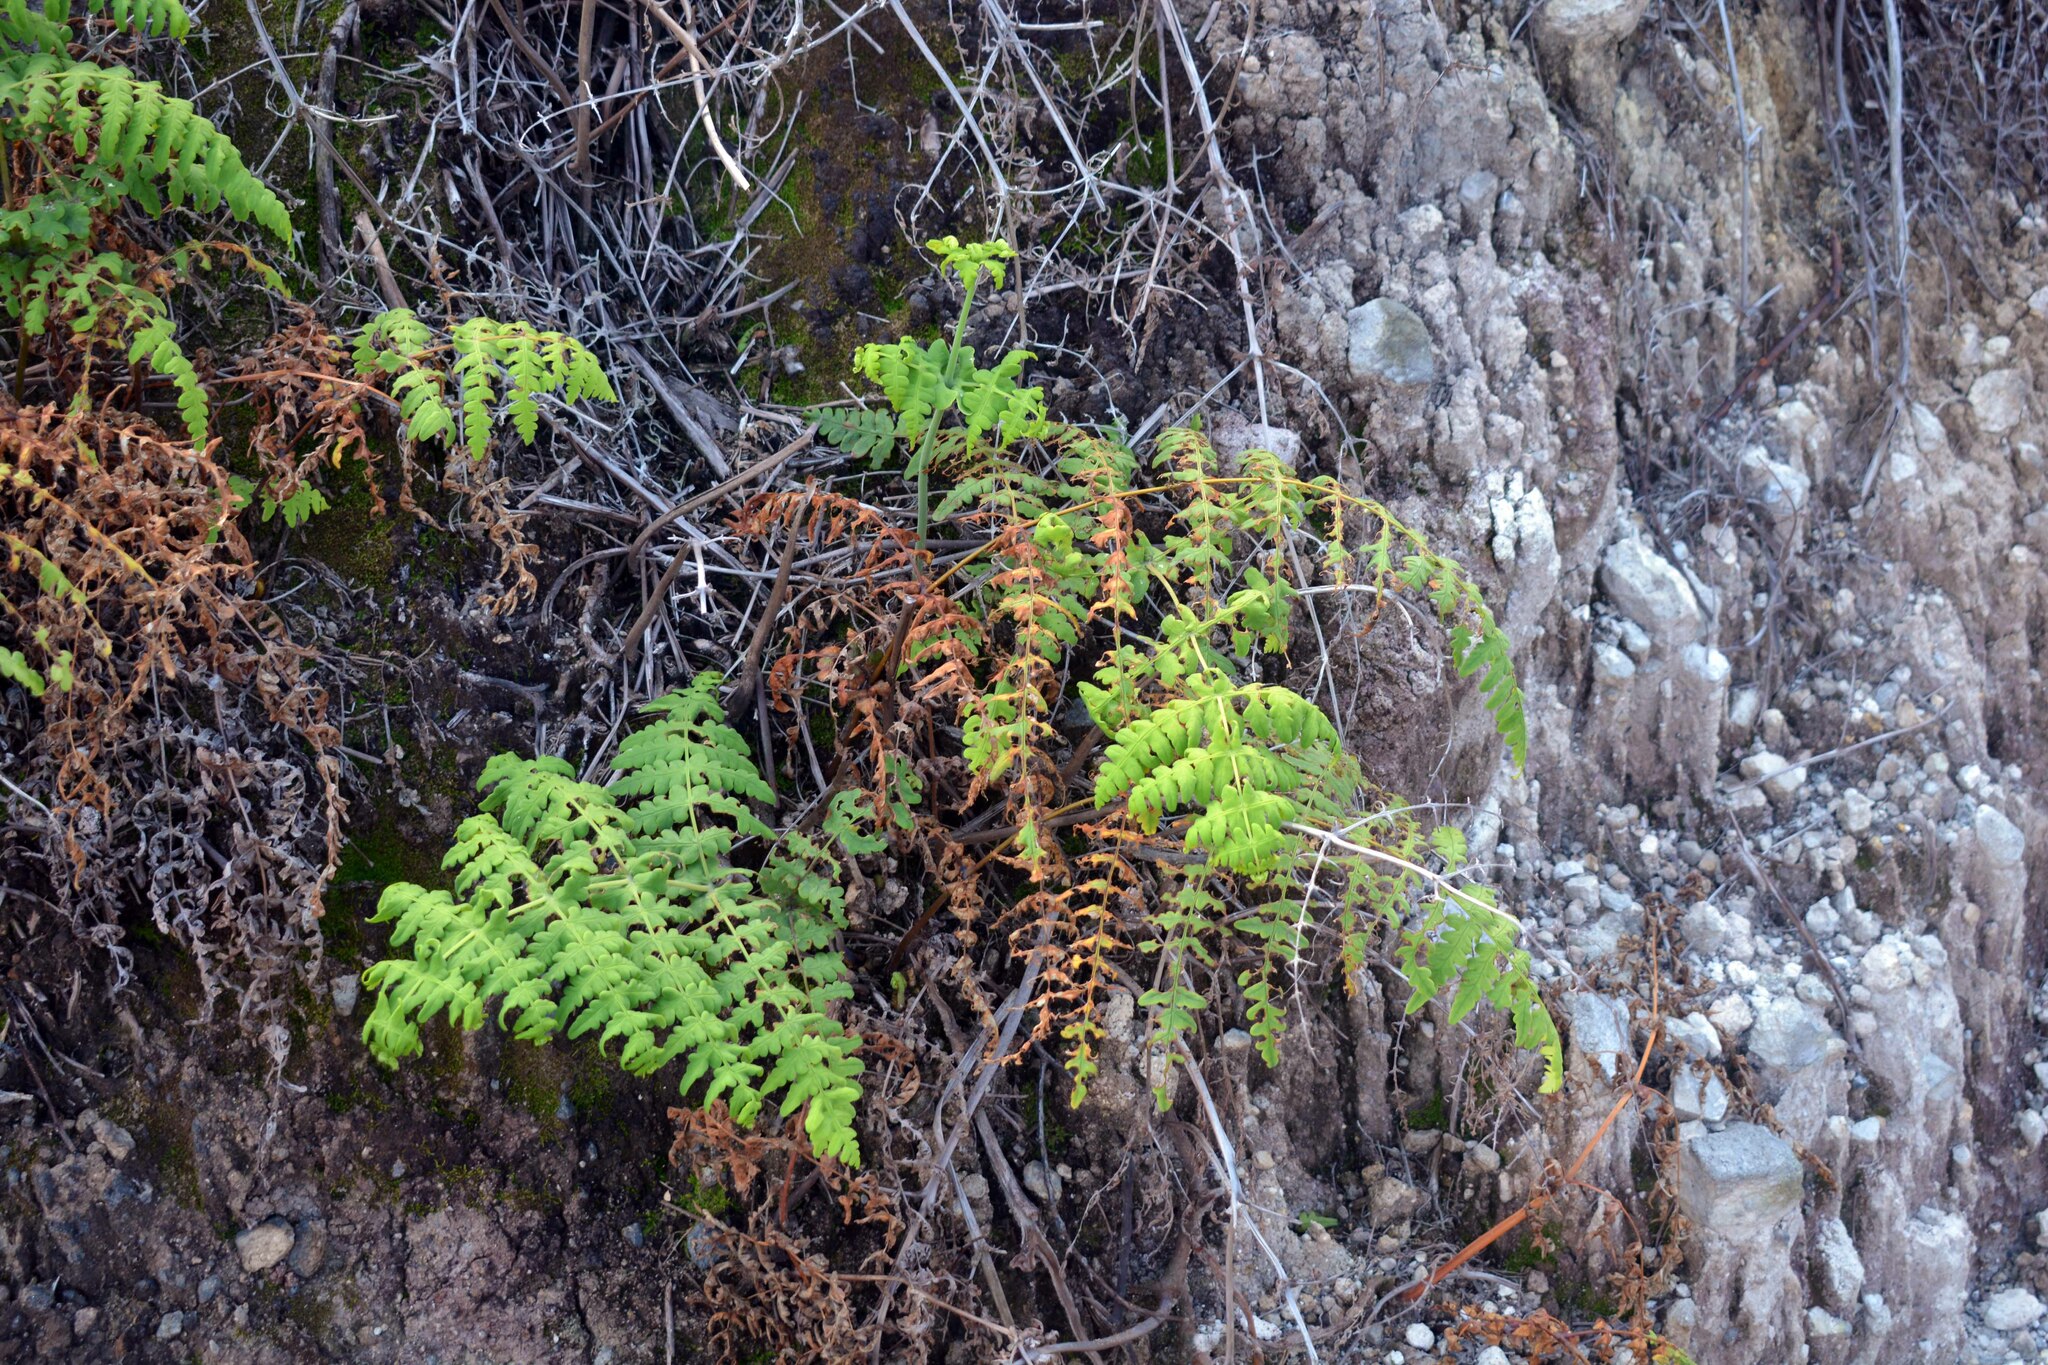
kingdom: Plantae
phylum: Tracheophyta
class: Polypodiopsida
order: Polypodiales
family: Dennstaedtiaceae
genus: Histiopteris
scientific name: Histiopteris incisa
